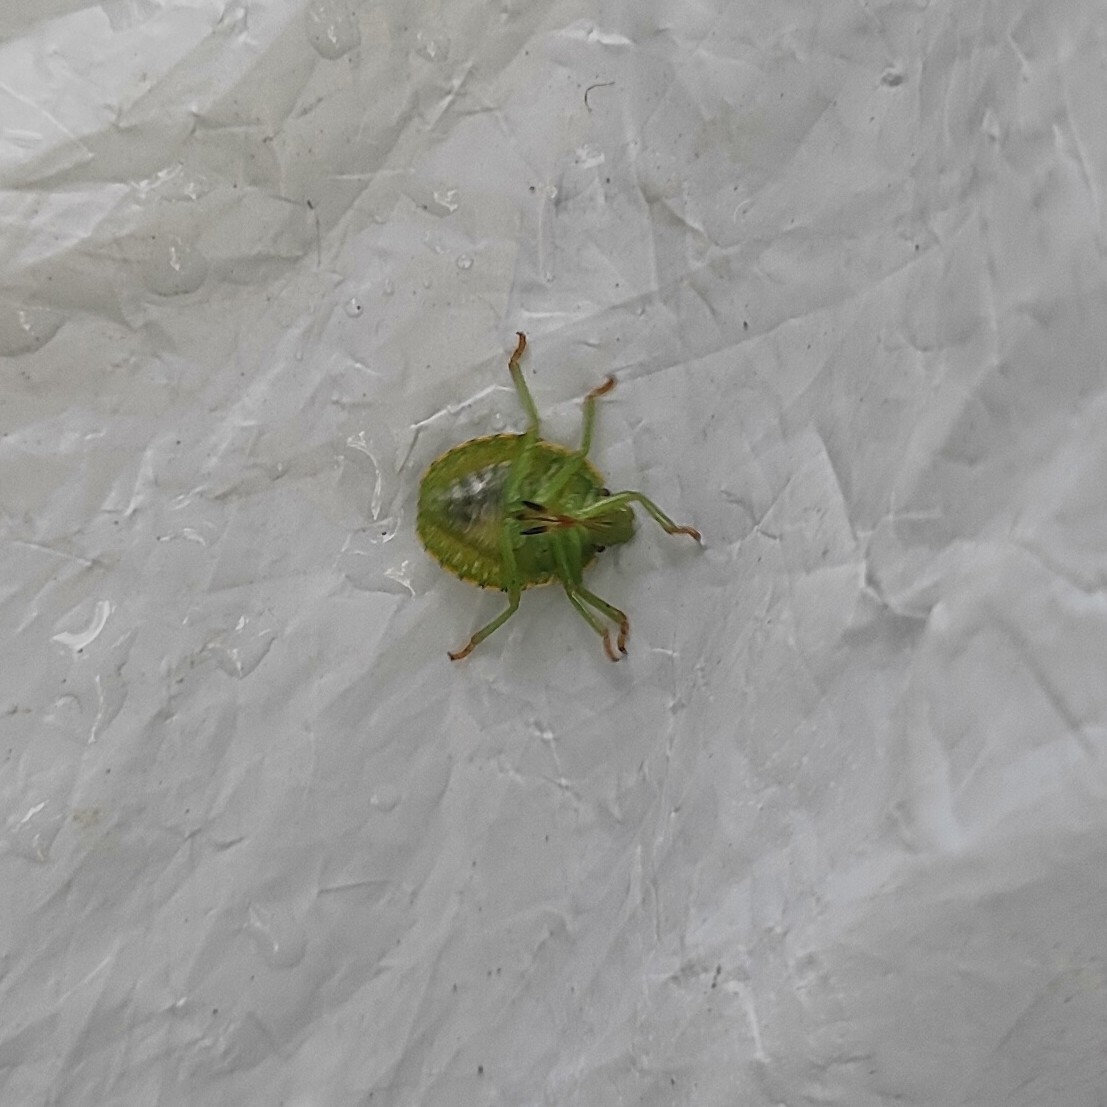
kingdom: Animalia
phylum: Arthropoda
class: Insecta
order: Hemiptera
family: Pentatomidae
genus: Palomena
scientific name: Palomena prasina
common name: Green shieldbug
